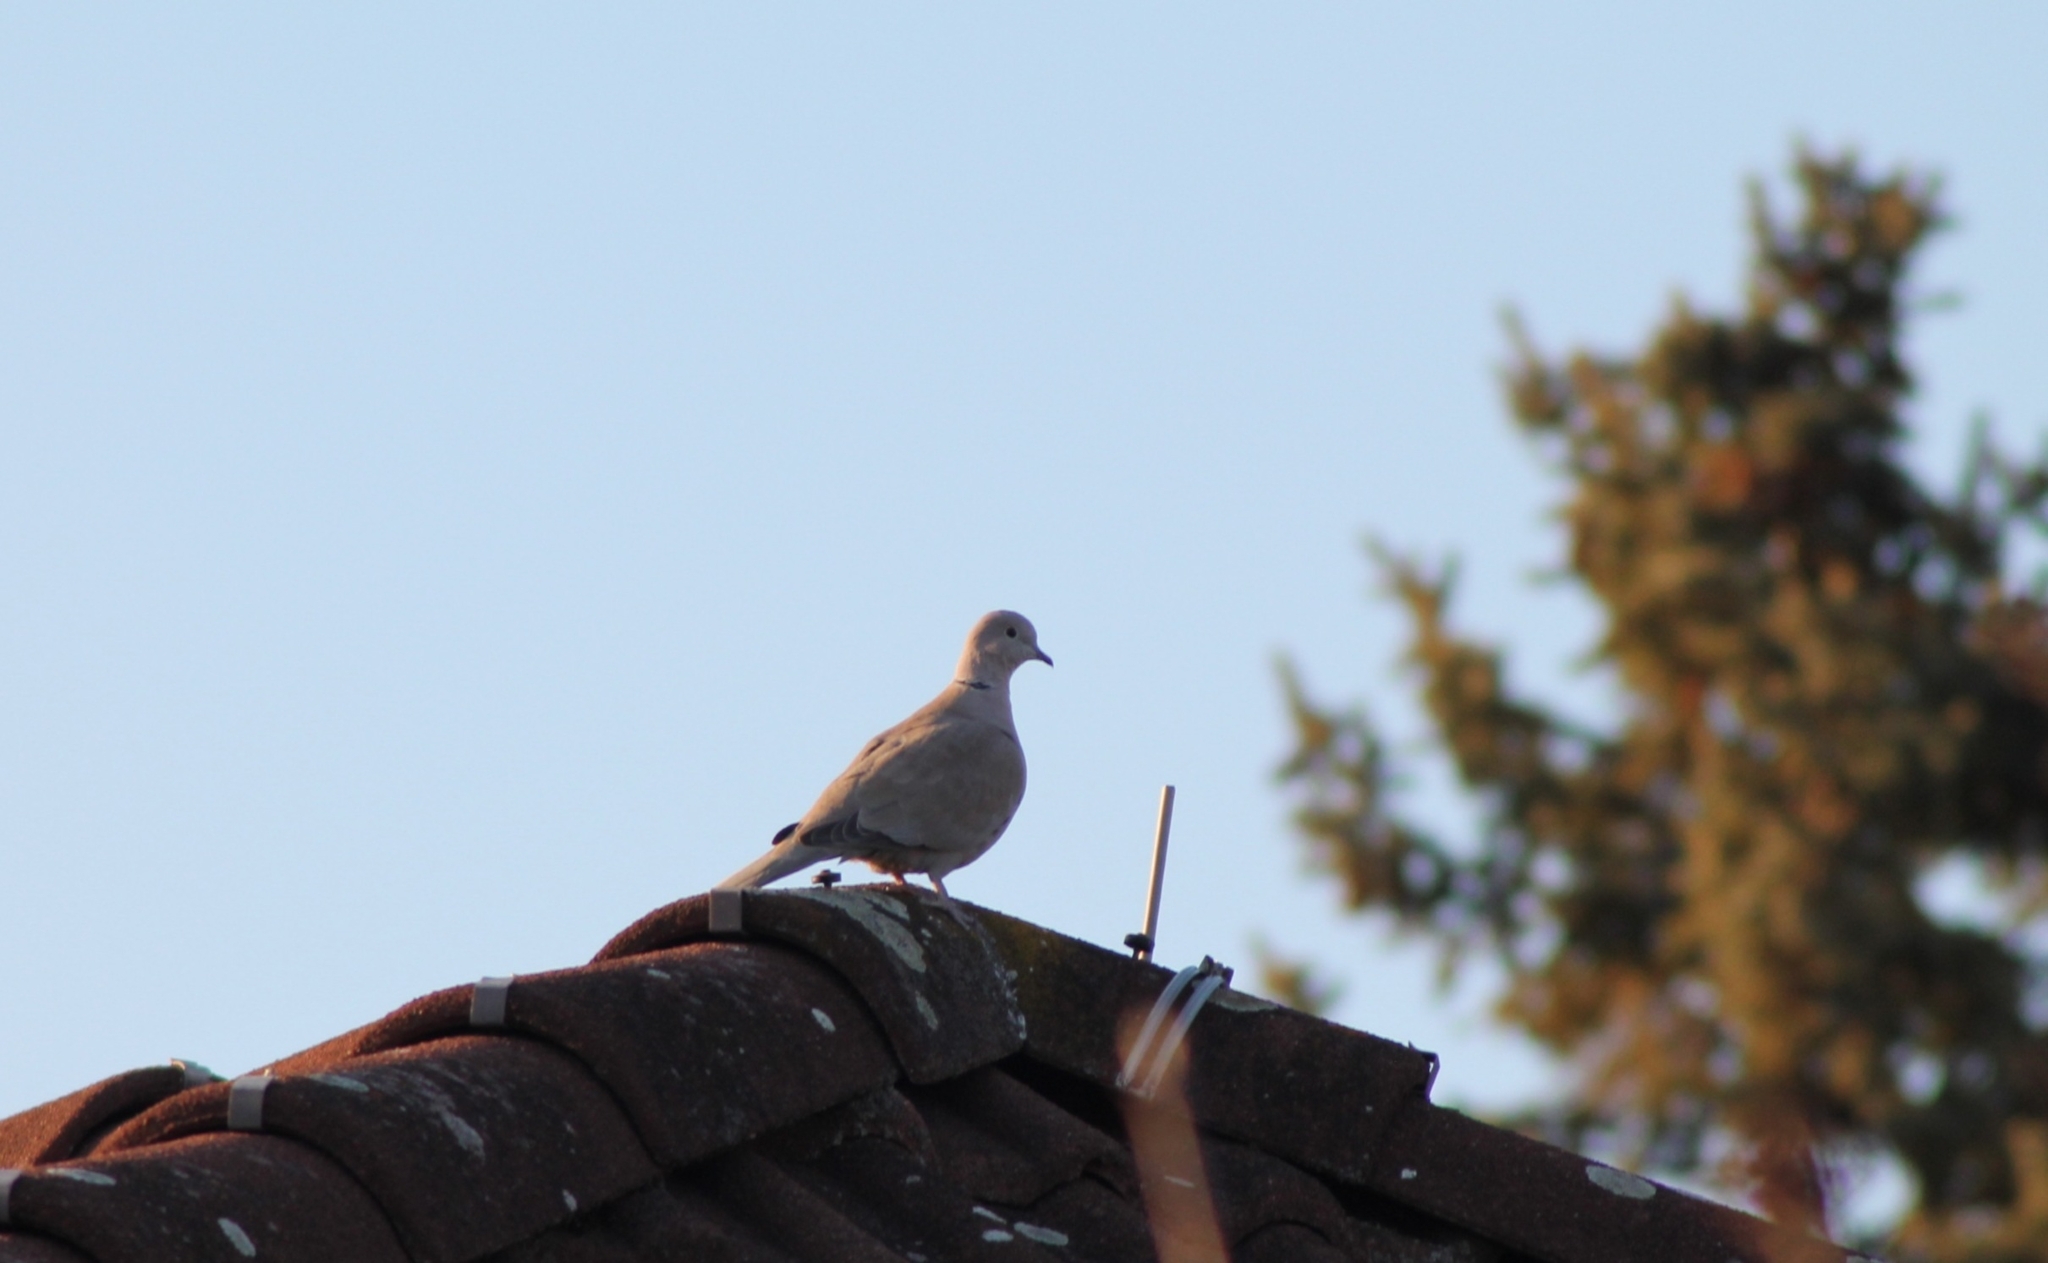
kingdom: Animalia
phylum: Chordata
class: Aves
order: Columbiformes
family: Columbidae
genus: Streptopelia
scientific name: Streptopelia decaocto
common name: Eurasian collared dove
